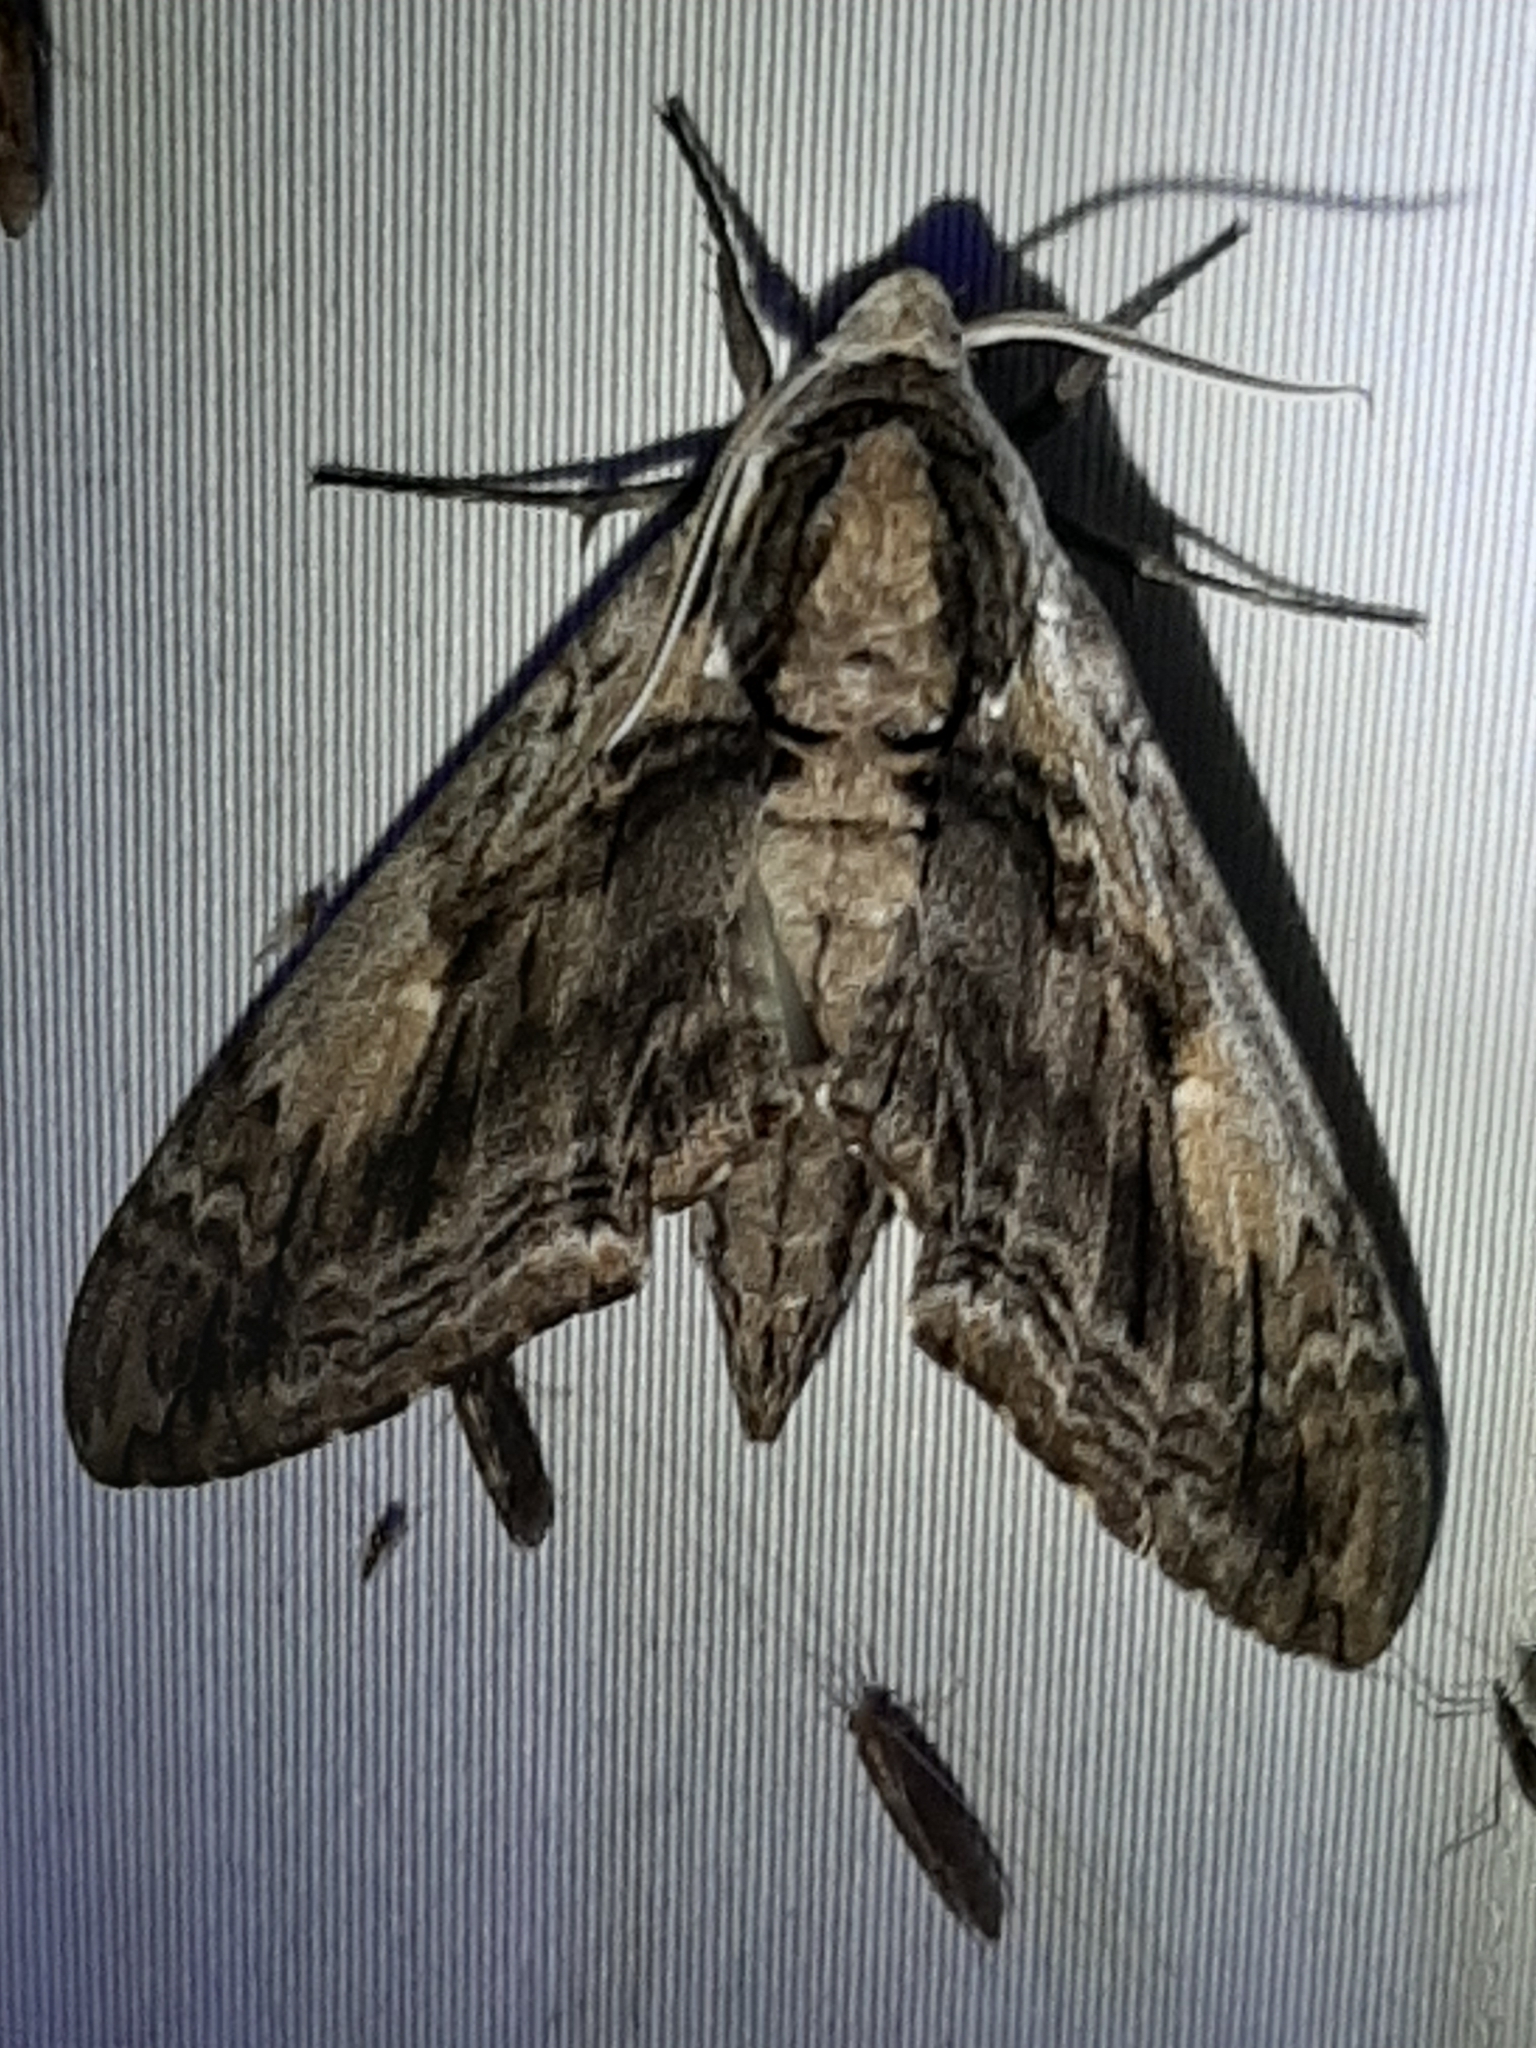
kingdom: Animalia
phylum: Arthropoda
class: Insecta
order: Lepidoptera
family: Sphingidae
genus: Ceratomia
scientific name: Ceratomia amyntor
